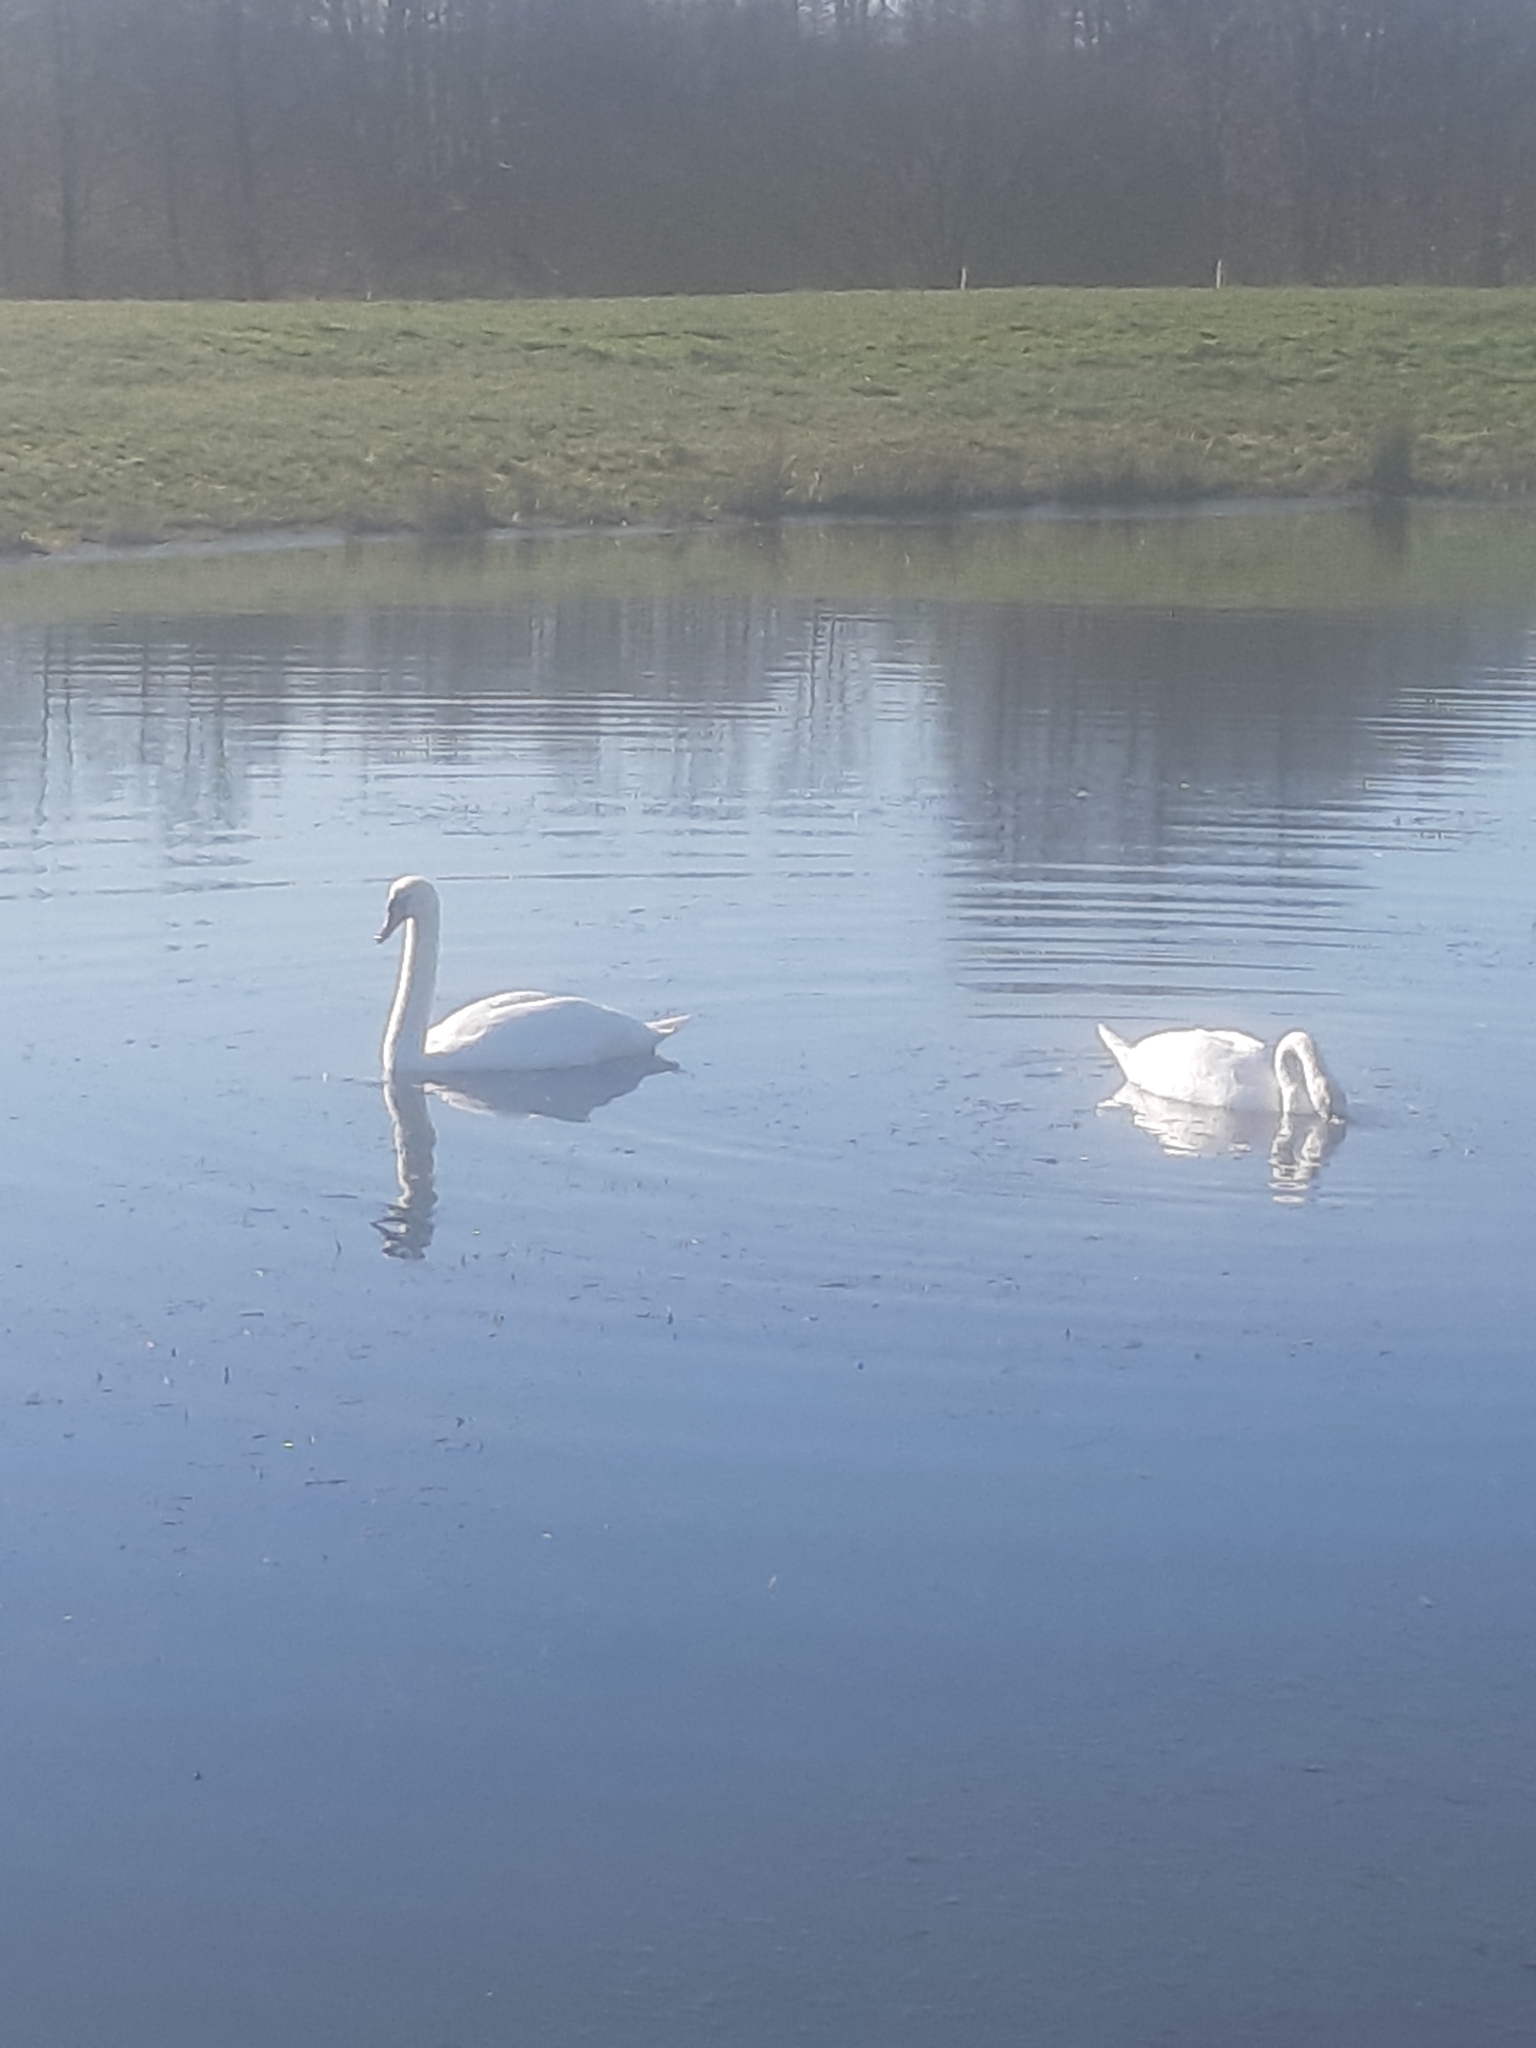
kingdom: Animalia
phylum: Chordata
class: Aves
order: Anseriformes
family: Anatidae
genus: Cygnus
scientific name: Cygnus olor
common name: Mute swan
